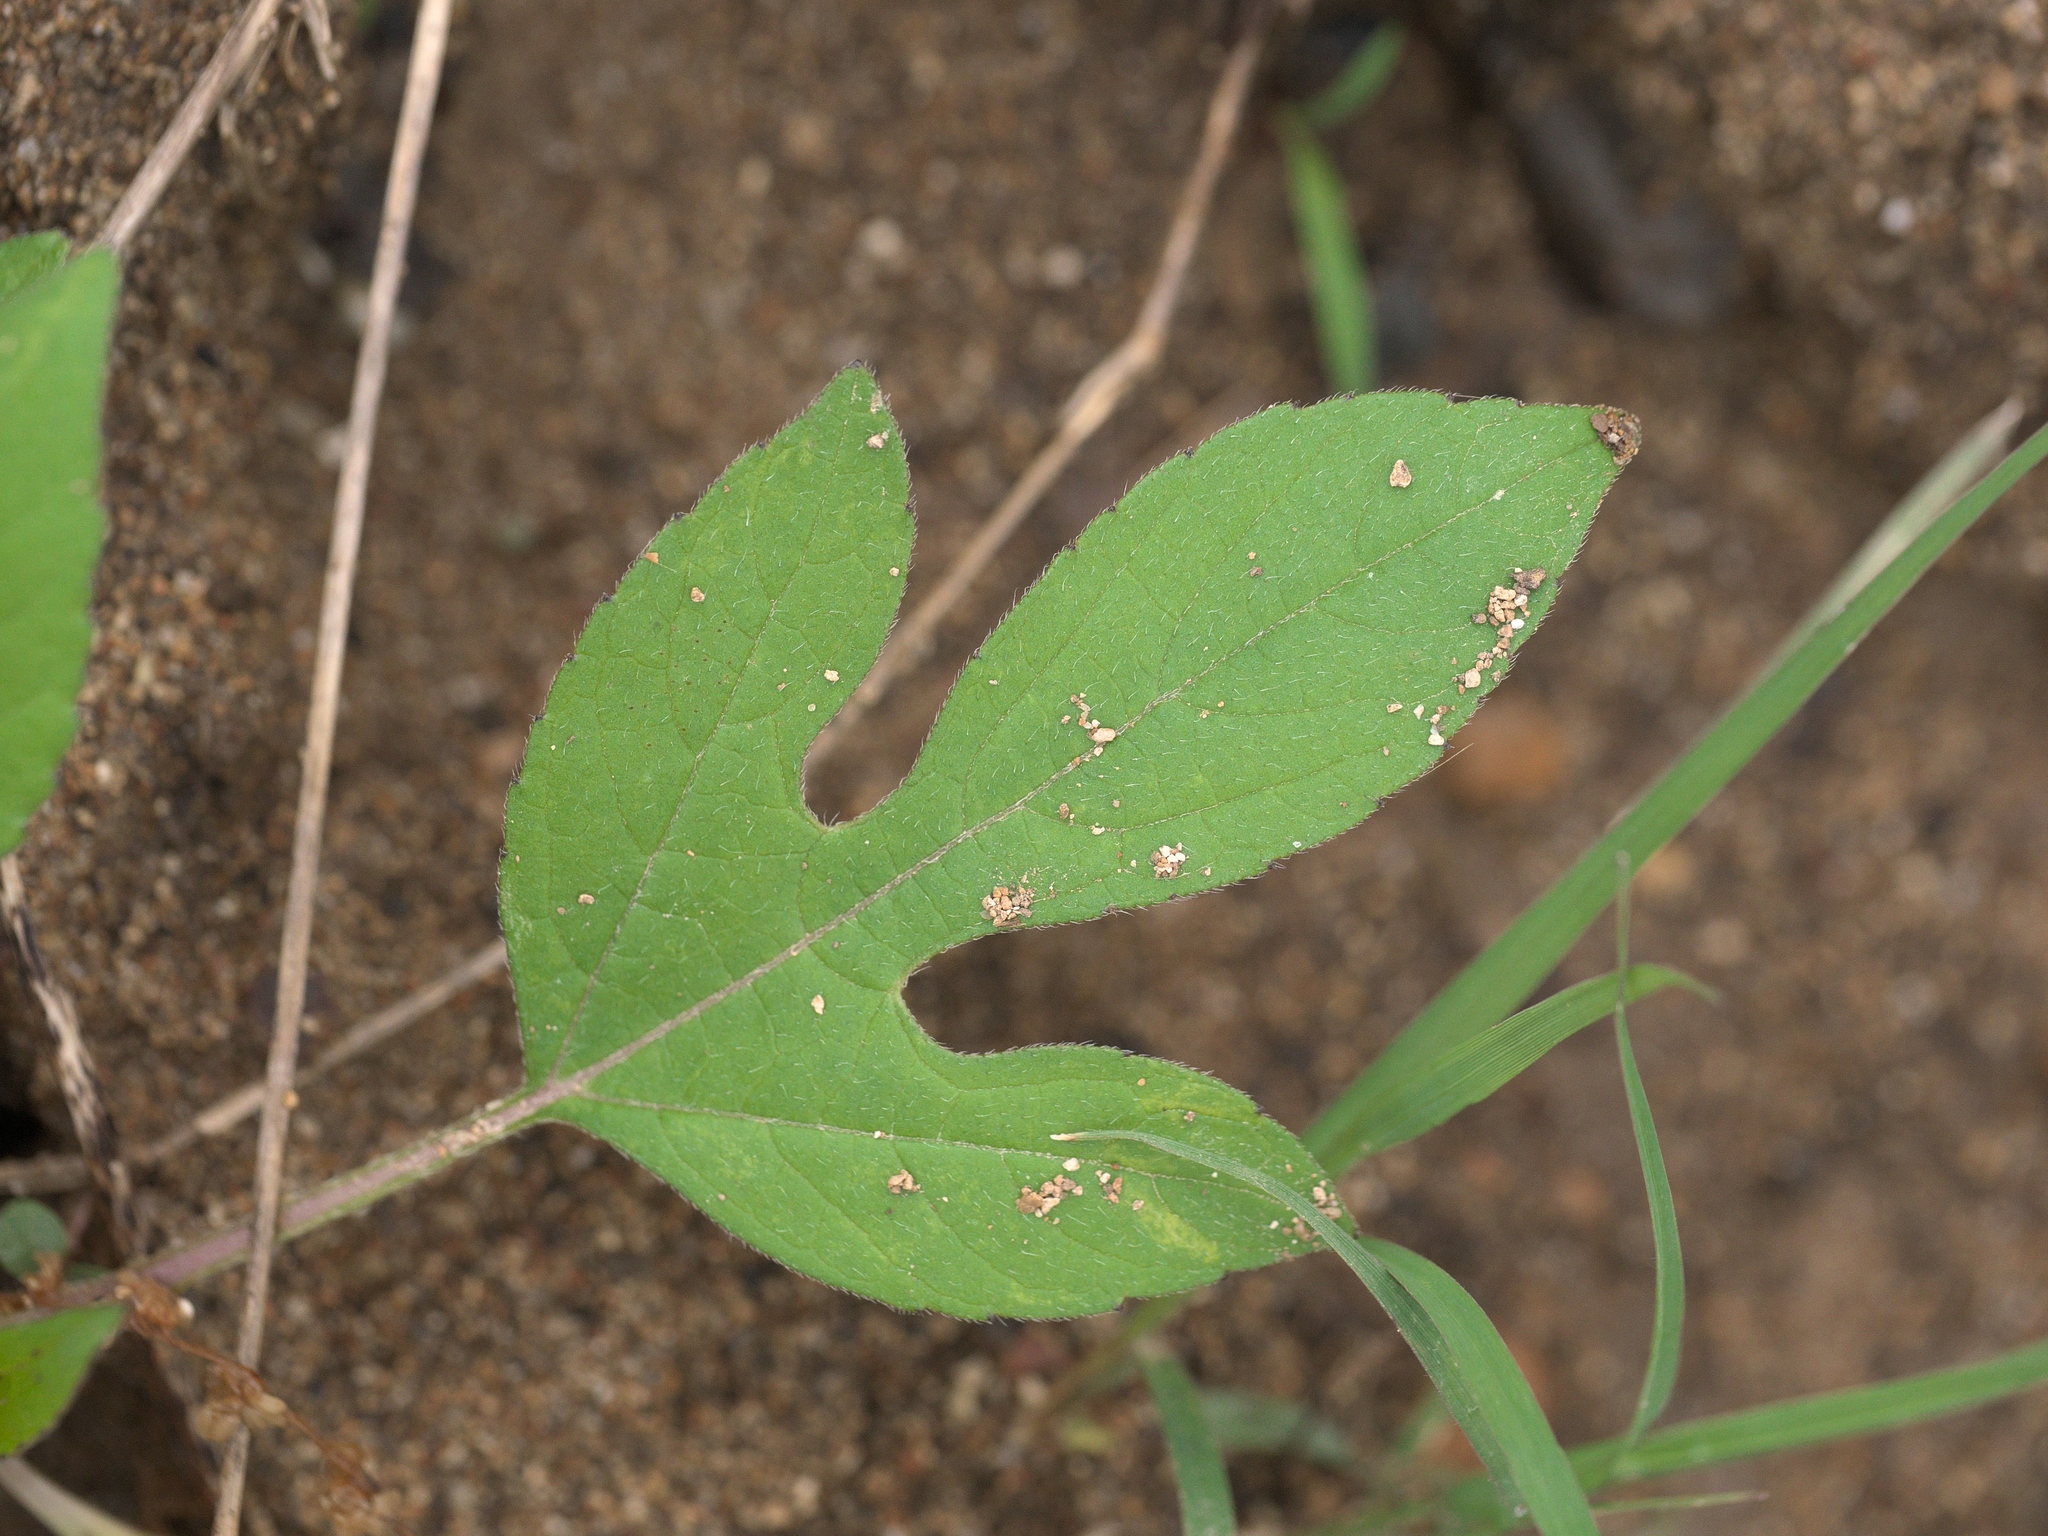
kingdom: Plantae
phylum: Tracheophyta
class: Magnoliopsida
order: Asterales
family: Asteraceae
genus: Ambrosia
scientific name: Ambrosia trifida
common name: Giant ragweed
